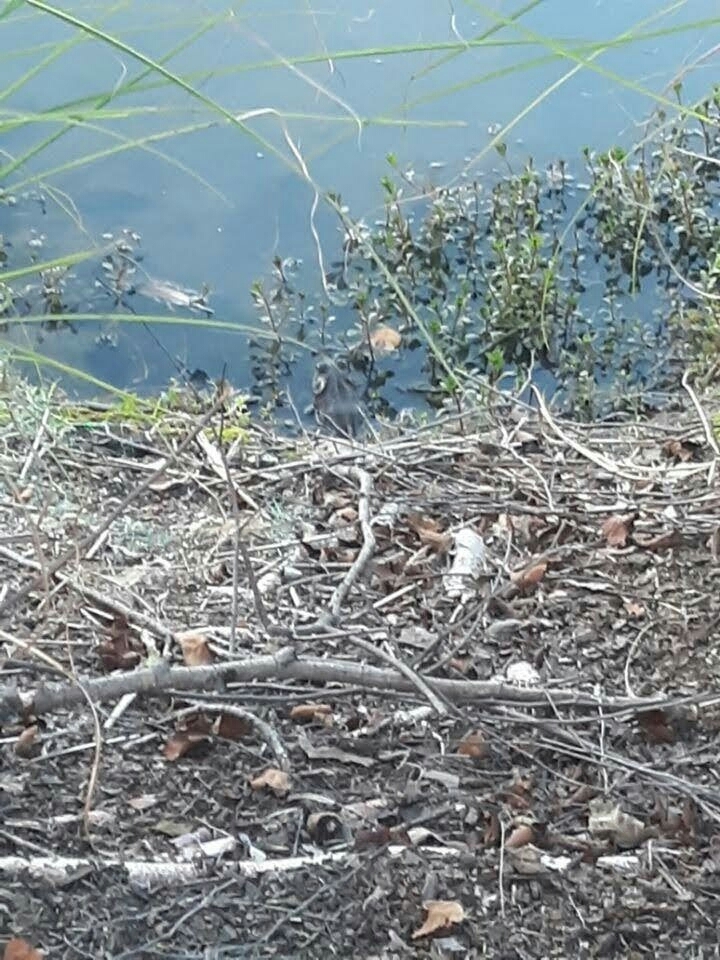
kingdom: Animalia
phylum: Chordata
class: Amphibia
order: Anura
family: Ranidae
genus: Lithobates
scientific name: Lithobates catesbeianus
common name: American bullfrog
